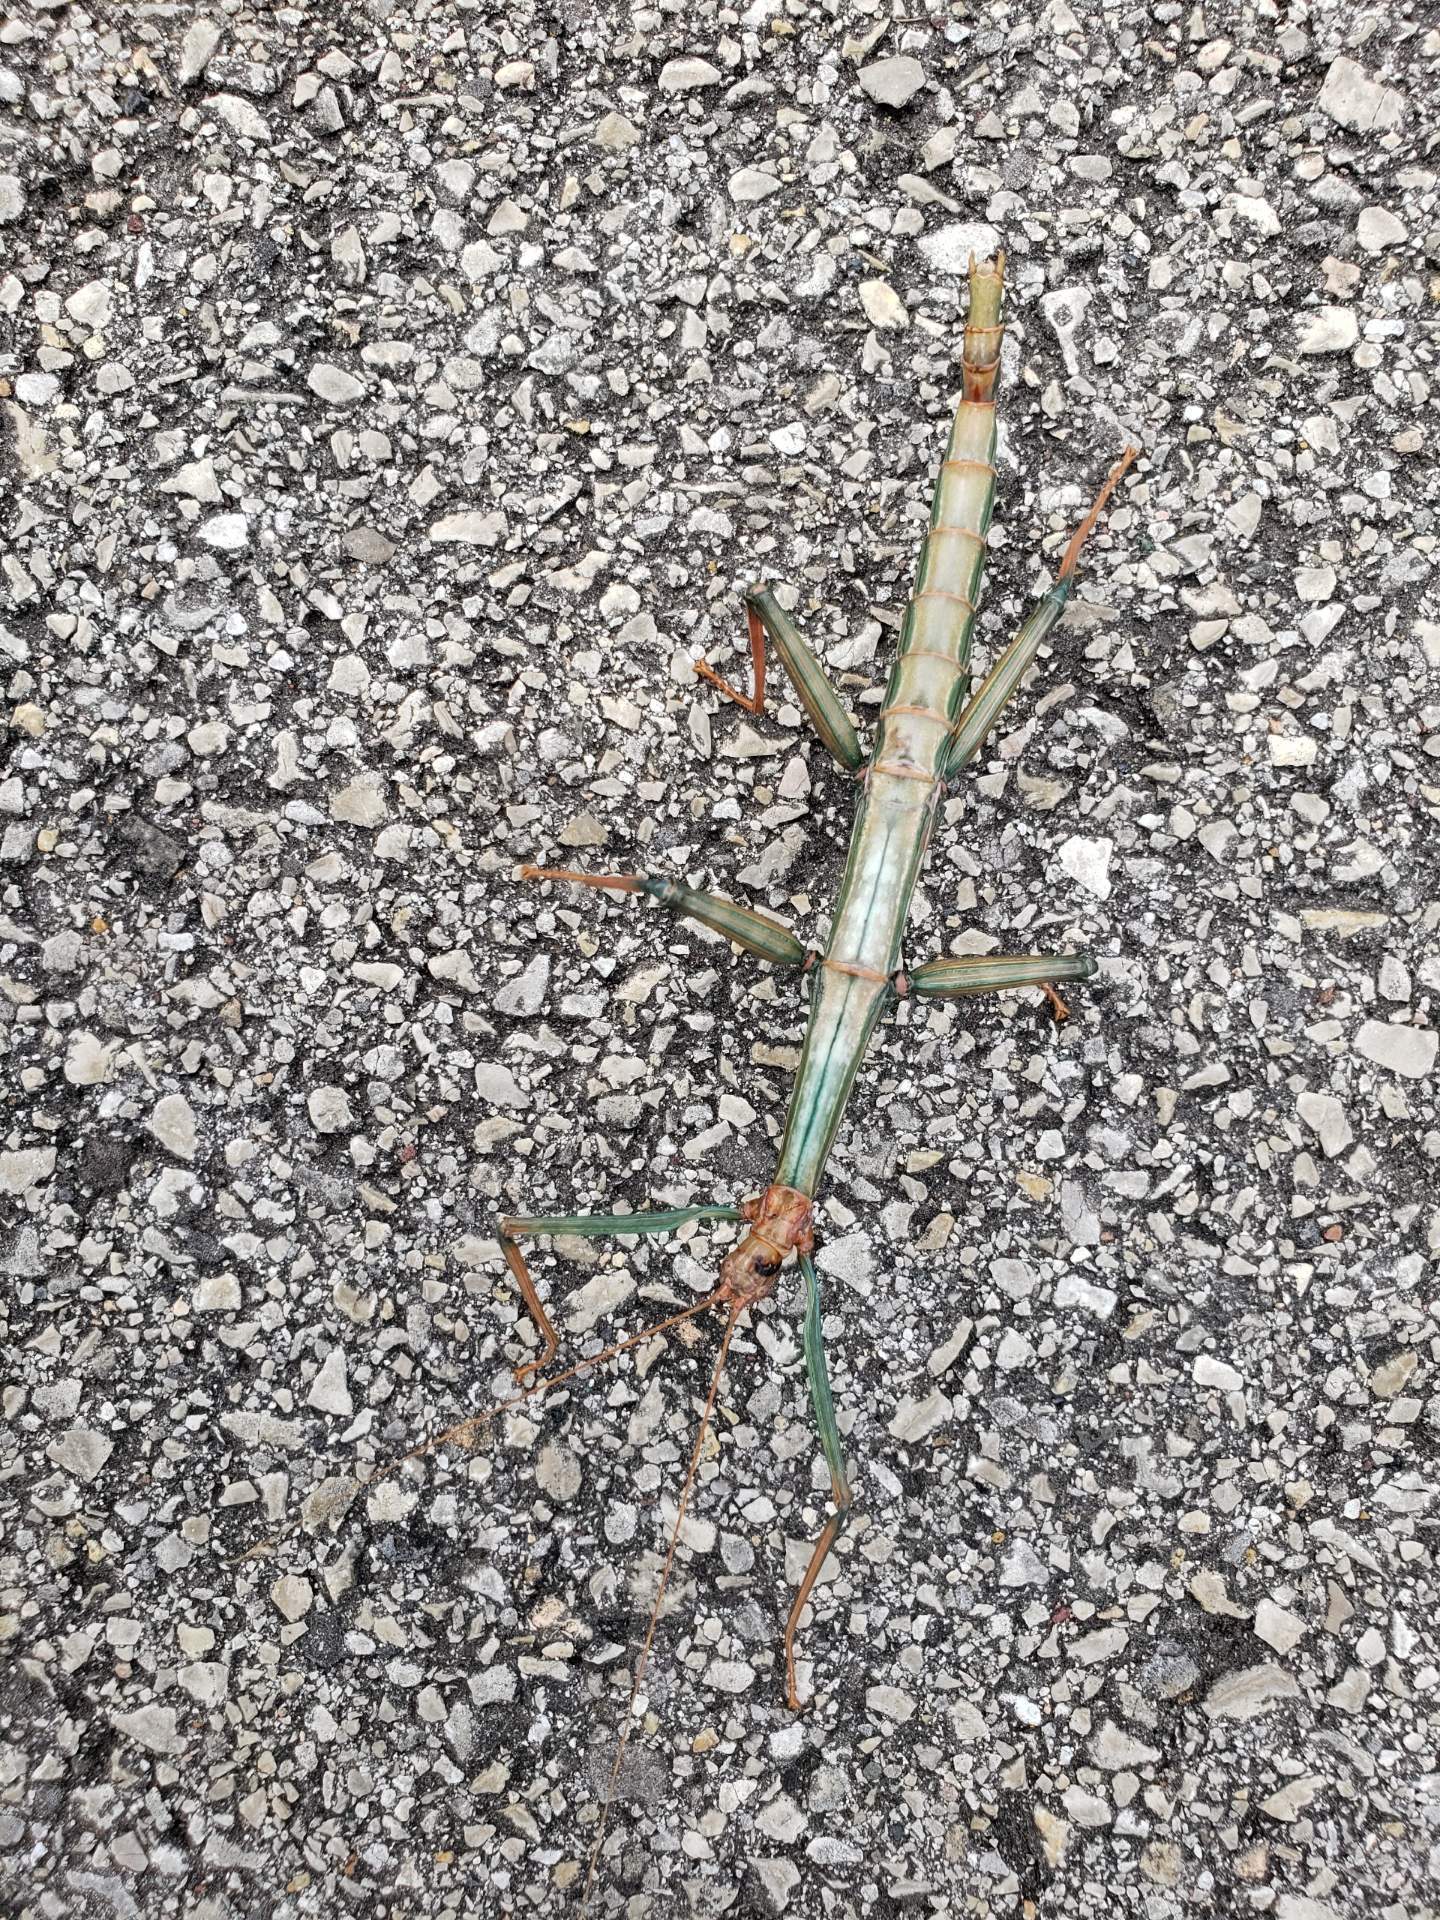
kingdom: Animalia
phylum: Arthropoda
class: Insecta
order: Phasmida
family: Diapheromeridae
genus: Megaphasma
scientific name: Megaphasma denticrus
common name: Giant walkingstick
